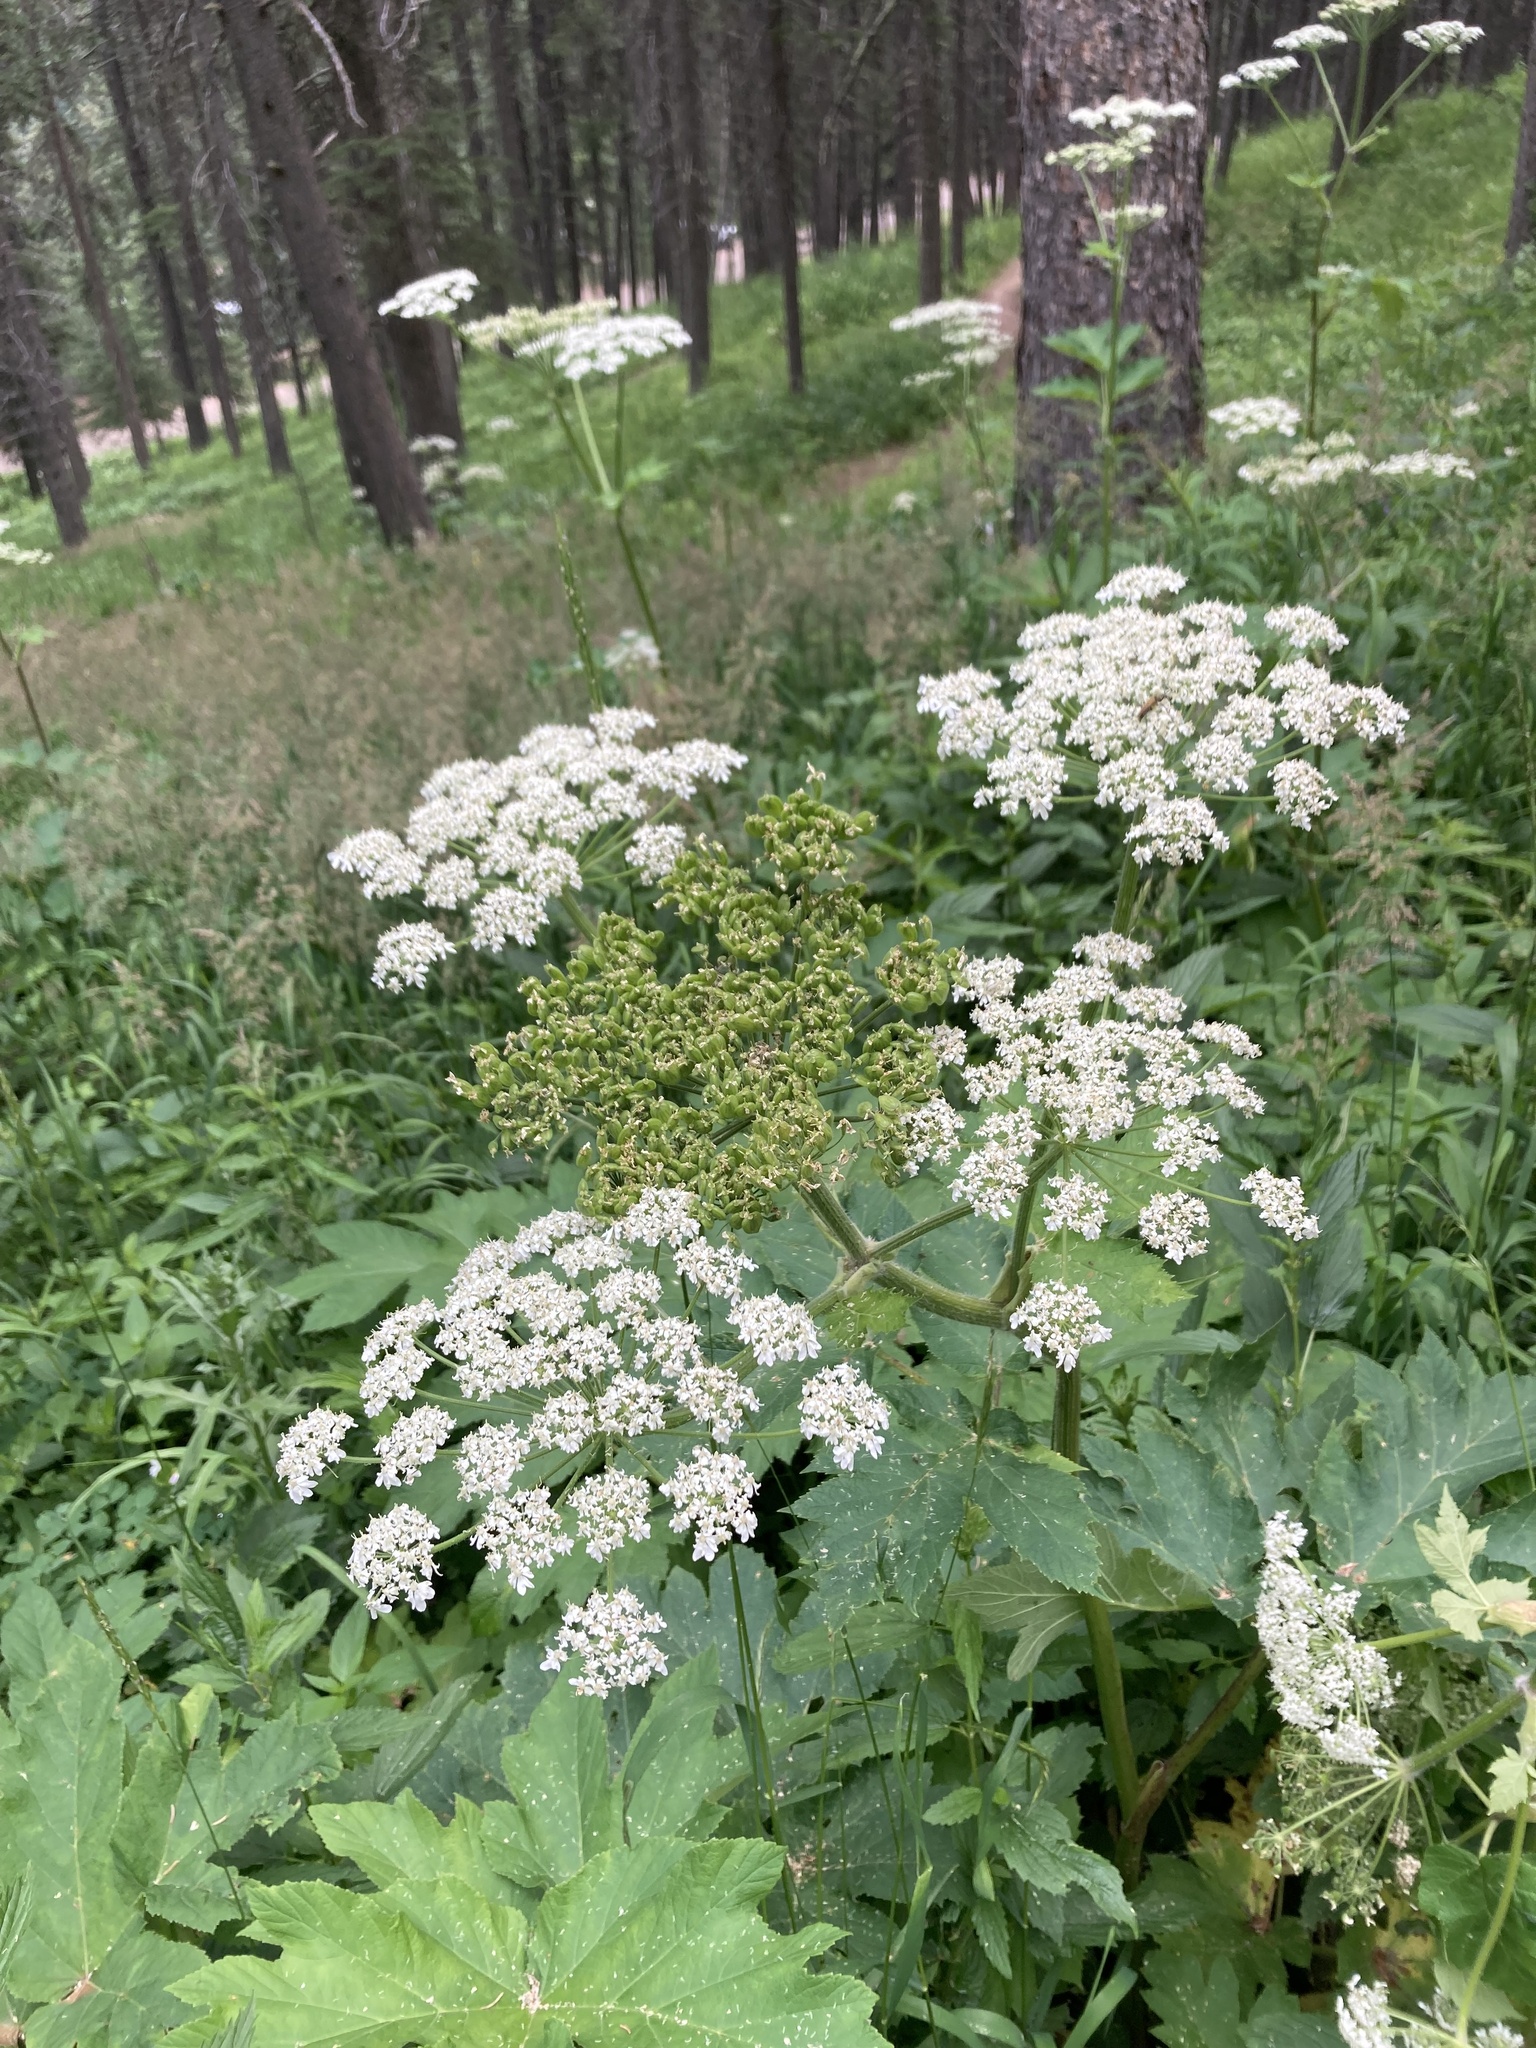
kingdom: Plantae
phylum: Tracheophyta
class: Magnoliopsida
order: Apiales
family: Apiaceae
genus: Heracleum
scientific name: Heracleum maximum
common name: American cow parsnip
